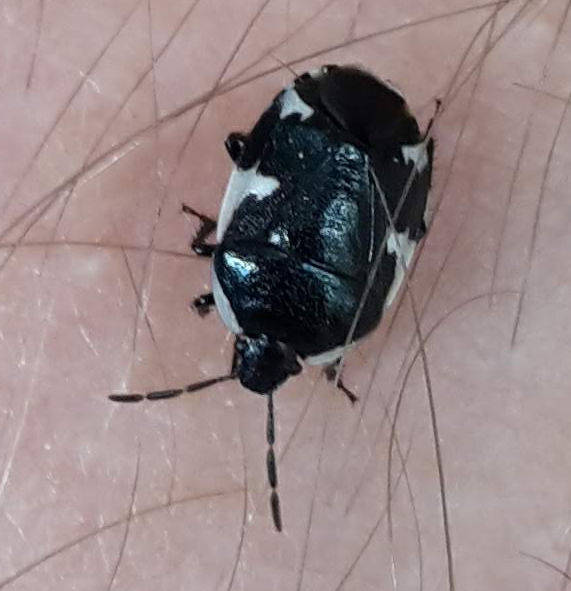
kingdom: Animalia
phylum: Arthropoda
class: Insecta
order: Hemiptera
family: Cydnidae
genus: Tritomegas
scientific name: Tritomegas sexmaculatus
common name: Rambur's pied shieldbug
